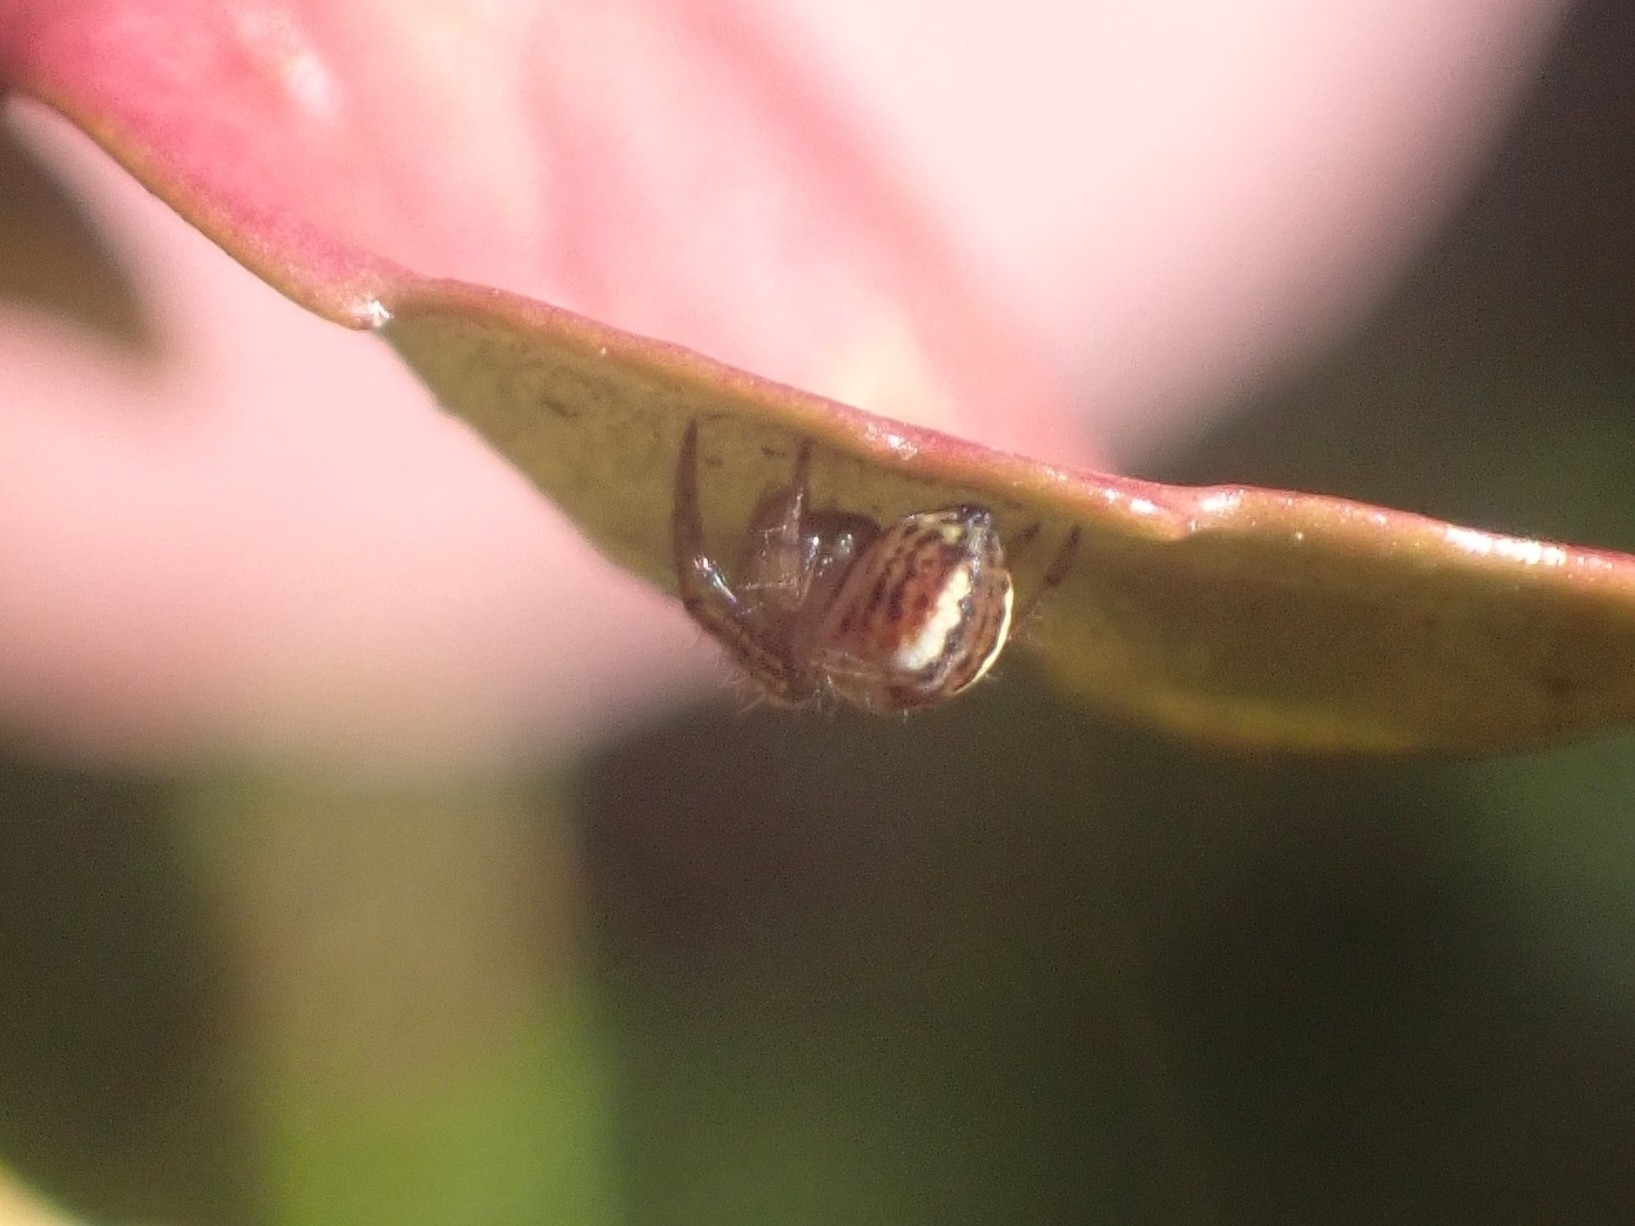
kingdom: Animalia
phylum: Arthropoda
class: Arachnida
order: Araneae
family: Araneidae
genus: Mangora
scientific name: Mangora acalypha
